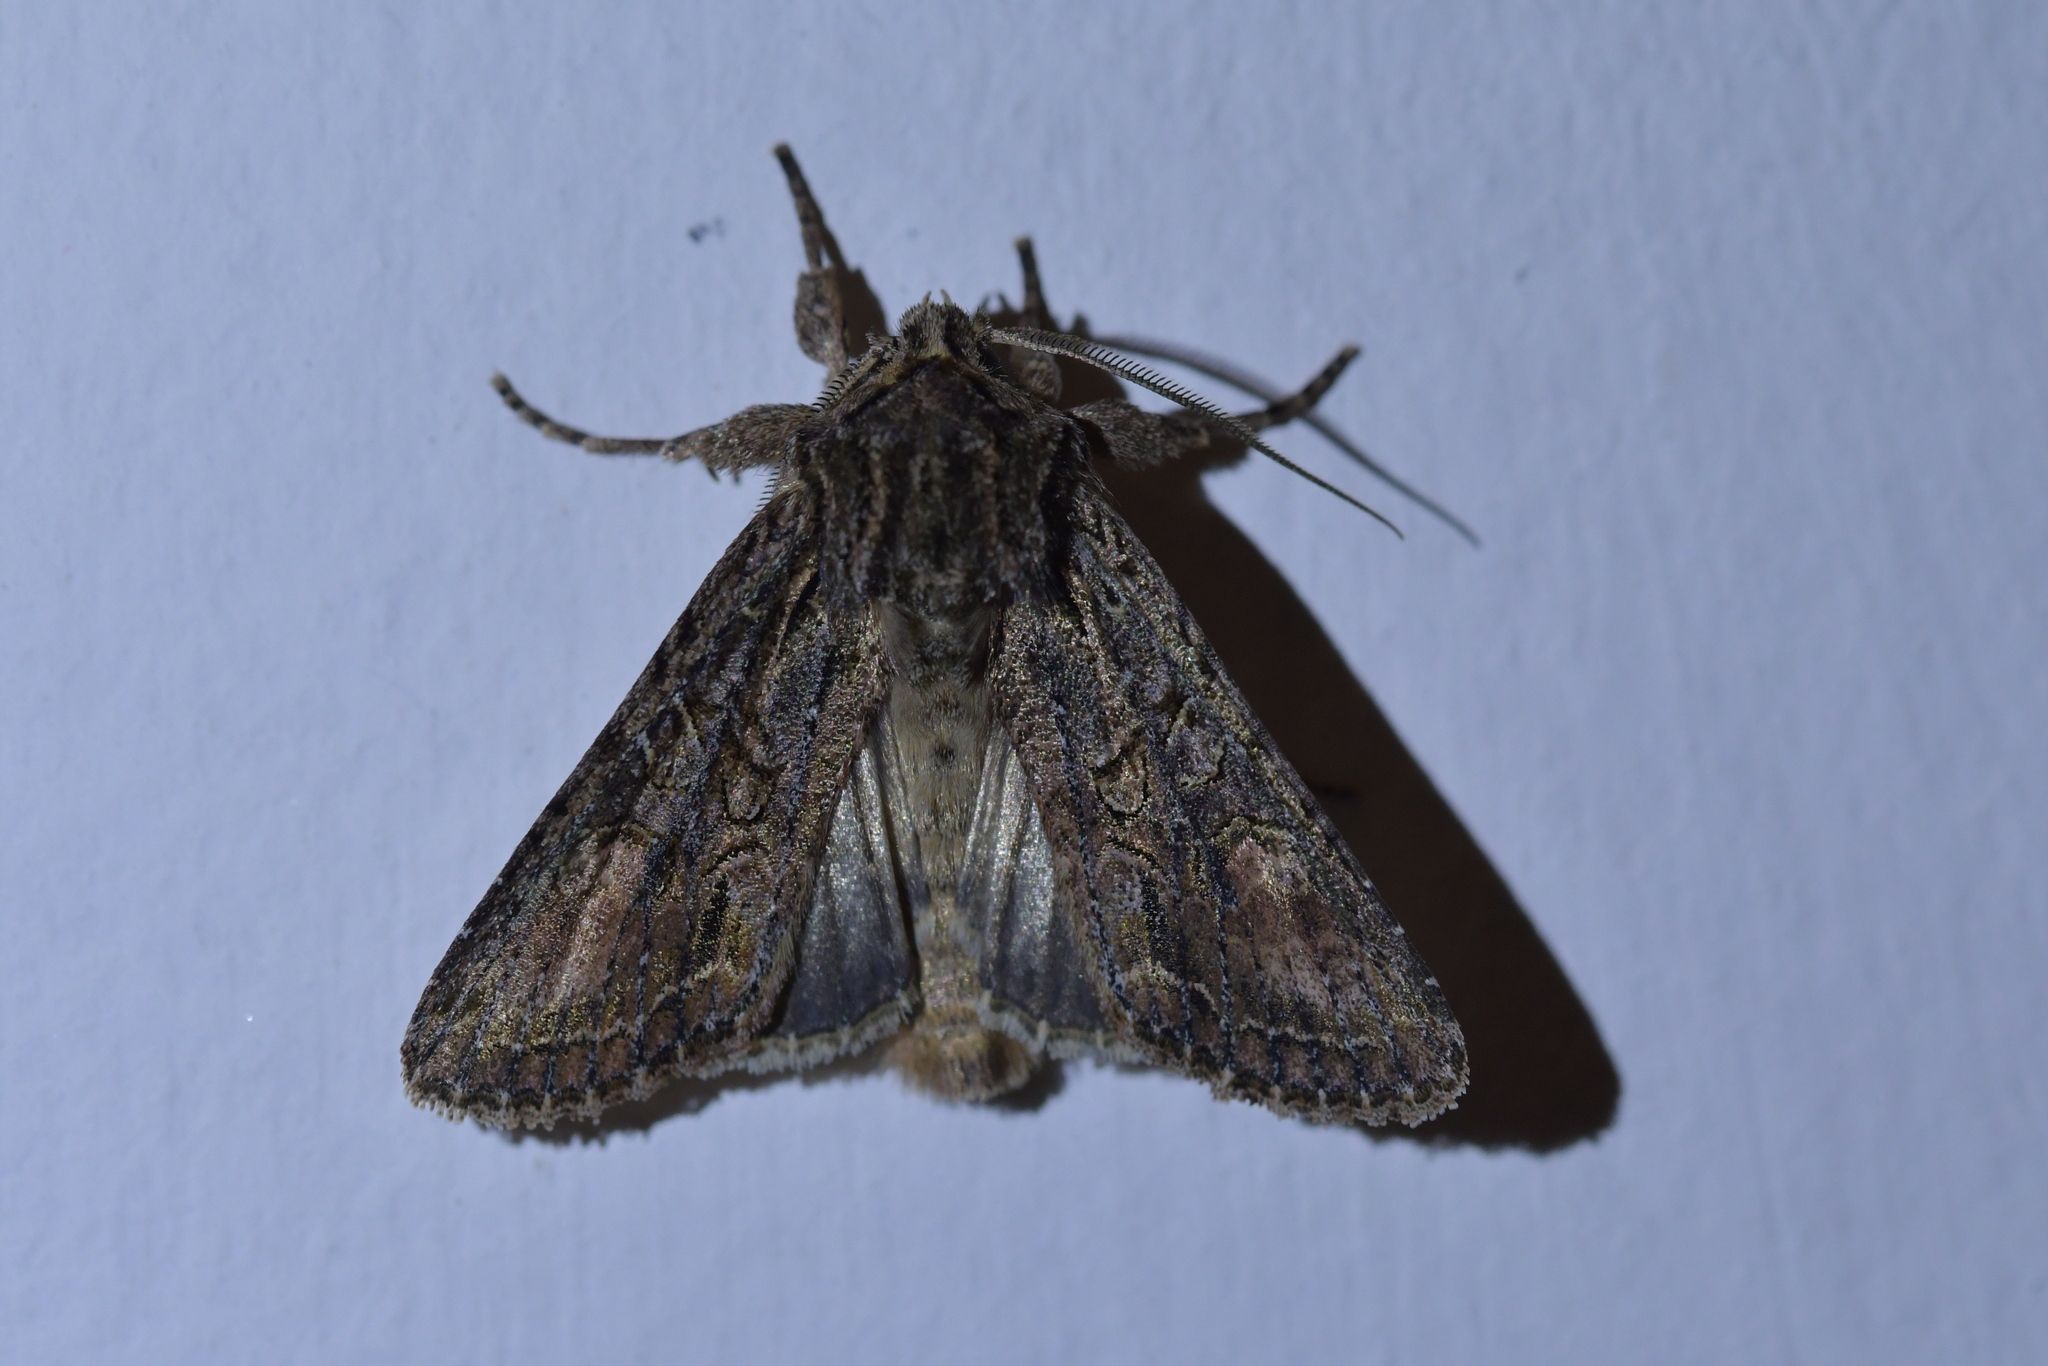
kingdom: Animalia
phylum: Arthropoda
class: Insecta
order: Lepidoptera
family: Noctuidae
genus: Ichneutica
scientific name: Ichneutica mutans
